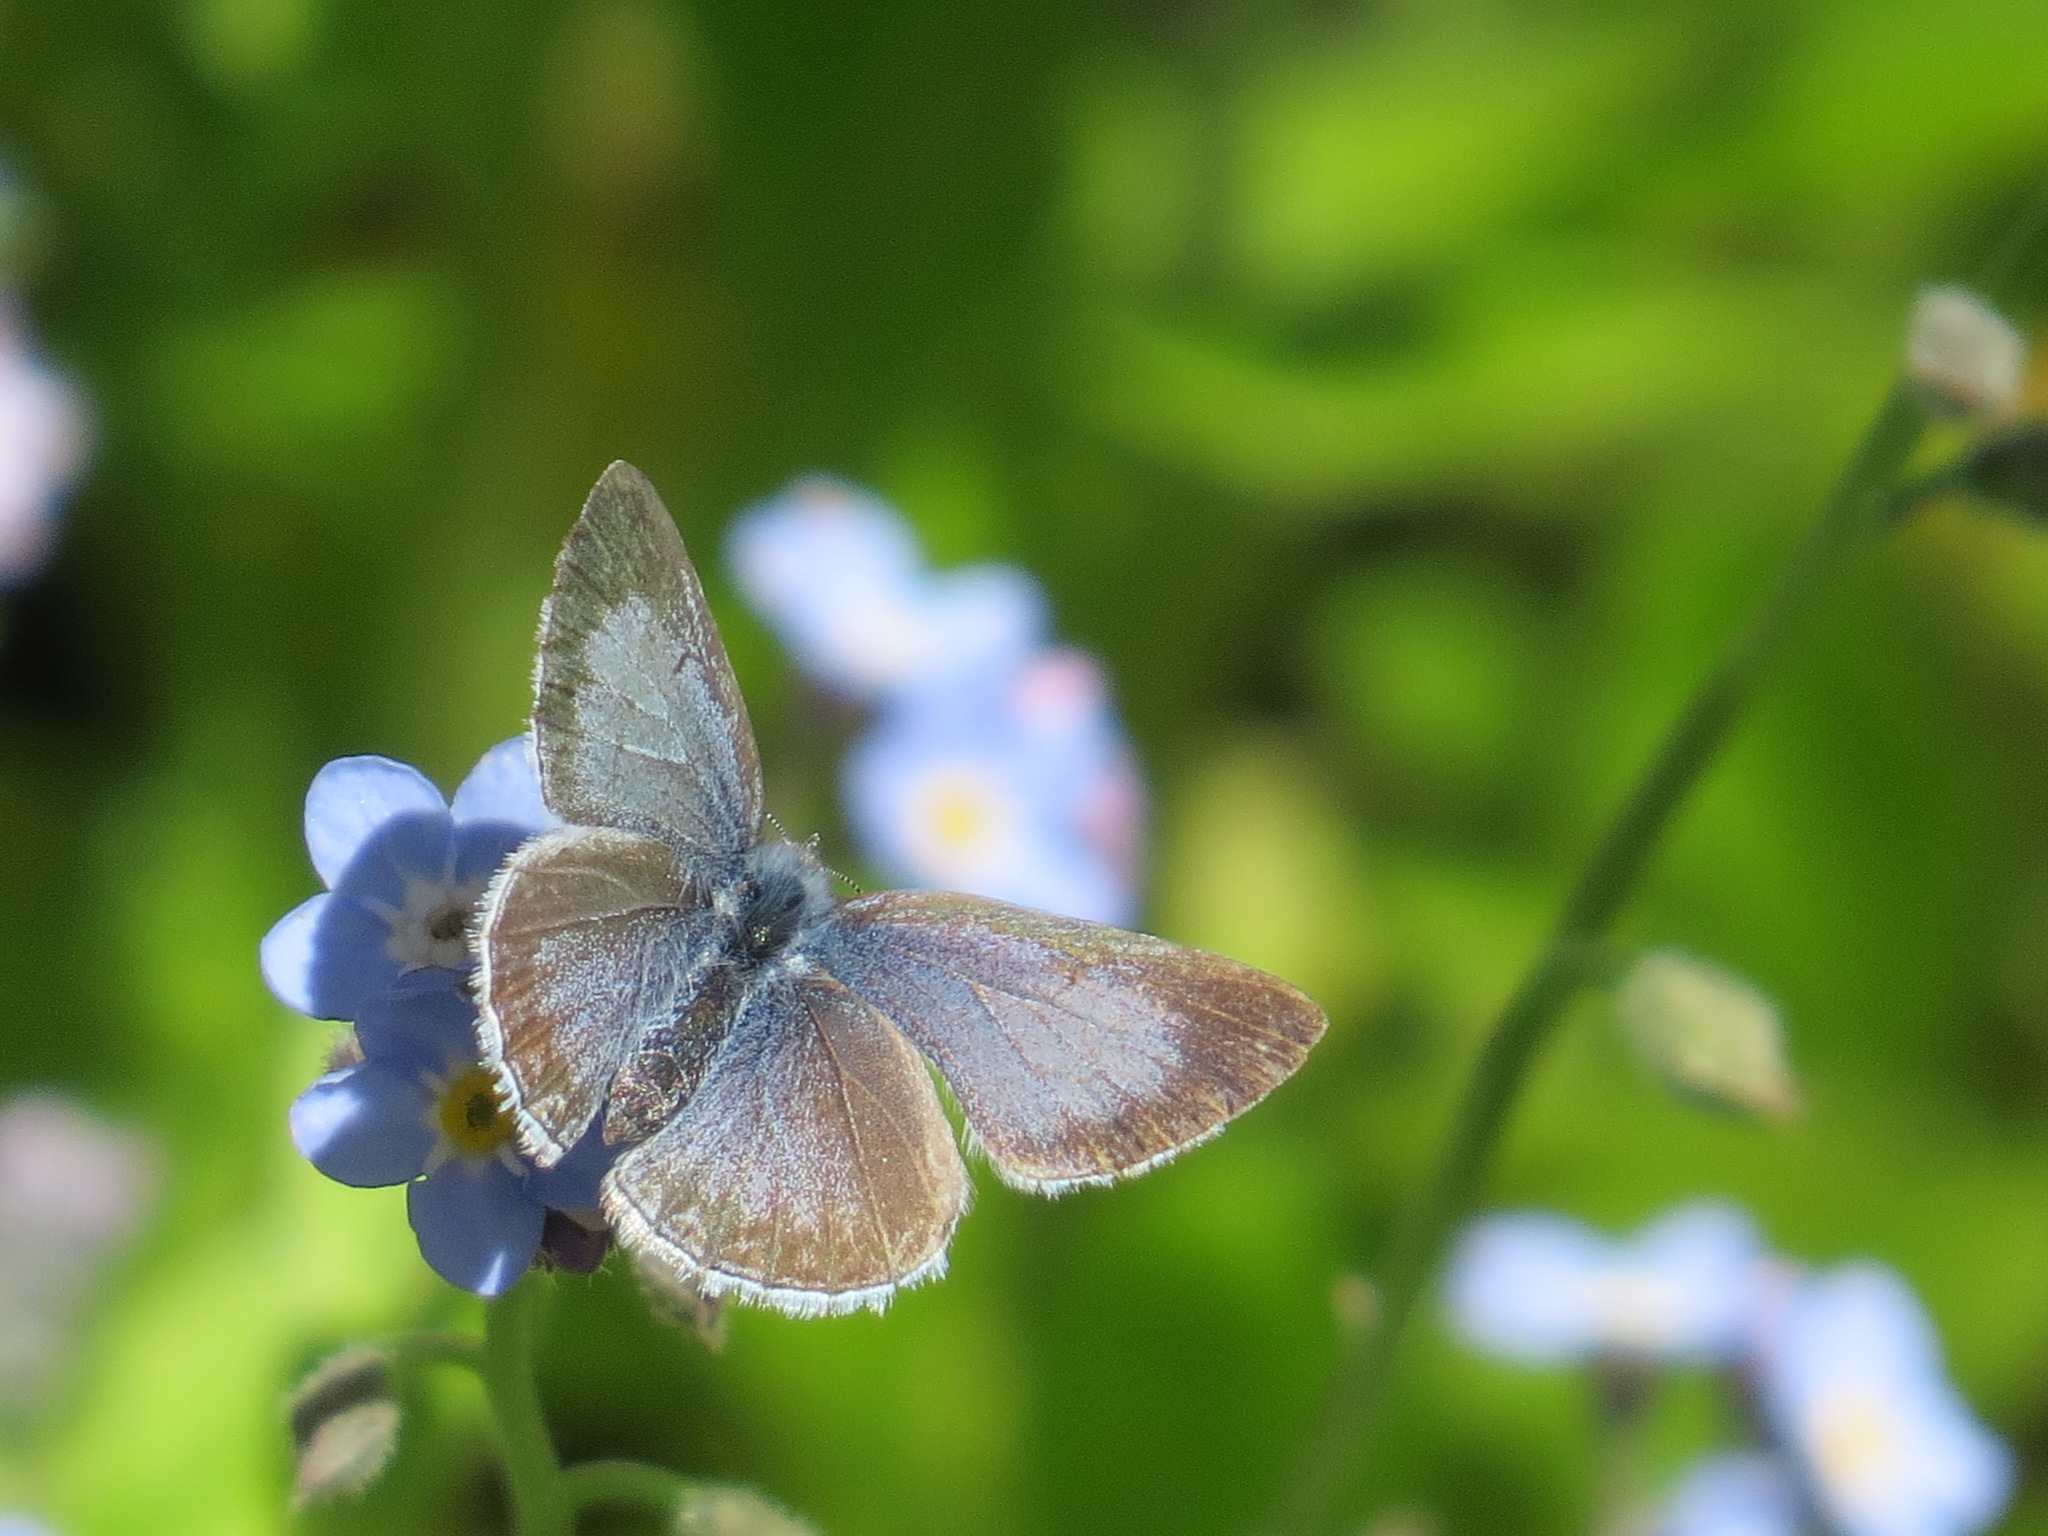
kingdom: Animalia
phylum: Arthropoda
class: Insecta
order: Lepidoptera
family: Lycaenidae
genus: Celastrina
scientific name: Celastrina ladon
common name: Spring azure
